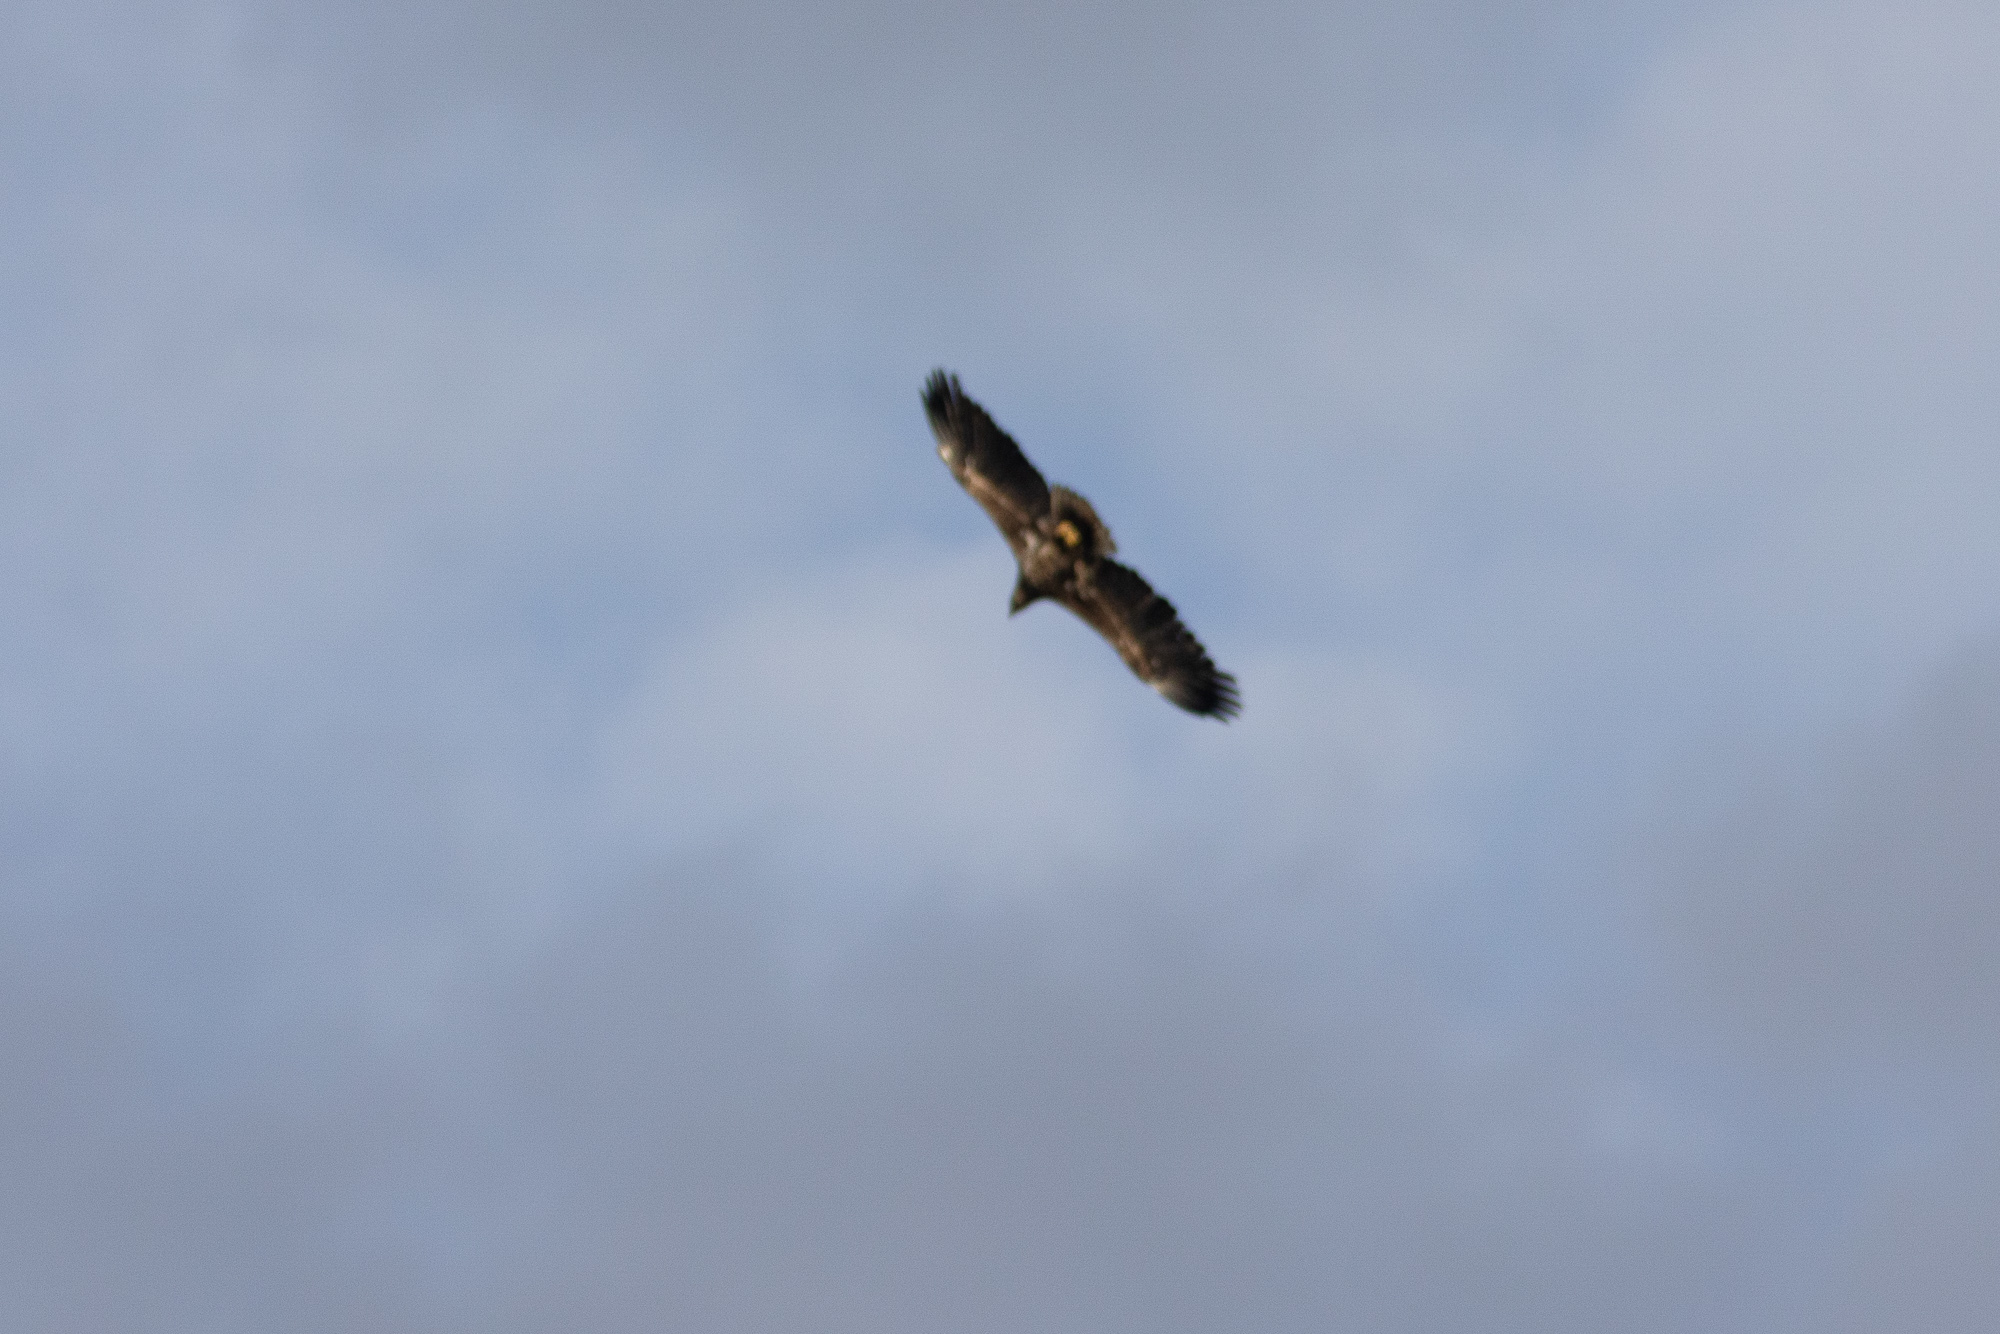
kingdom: Animalia
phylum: Chordata
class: Aves
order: Accipitriformes
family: Accipitridae
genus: Haliaeetus
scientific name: Haliaeetus albicilla
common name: White-tailed eagle
